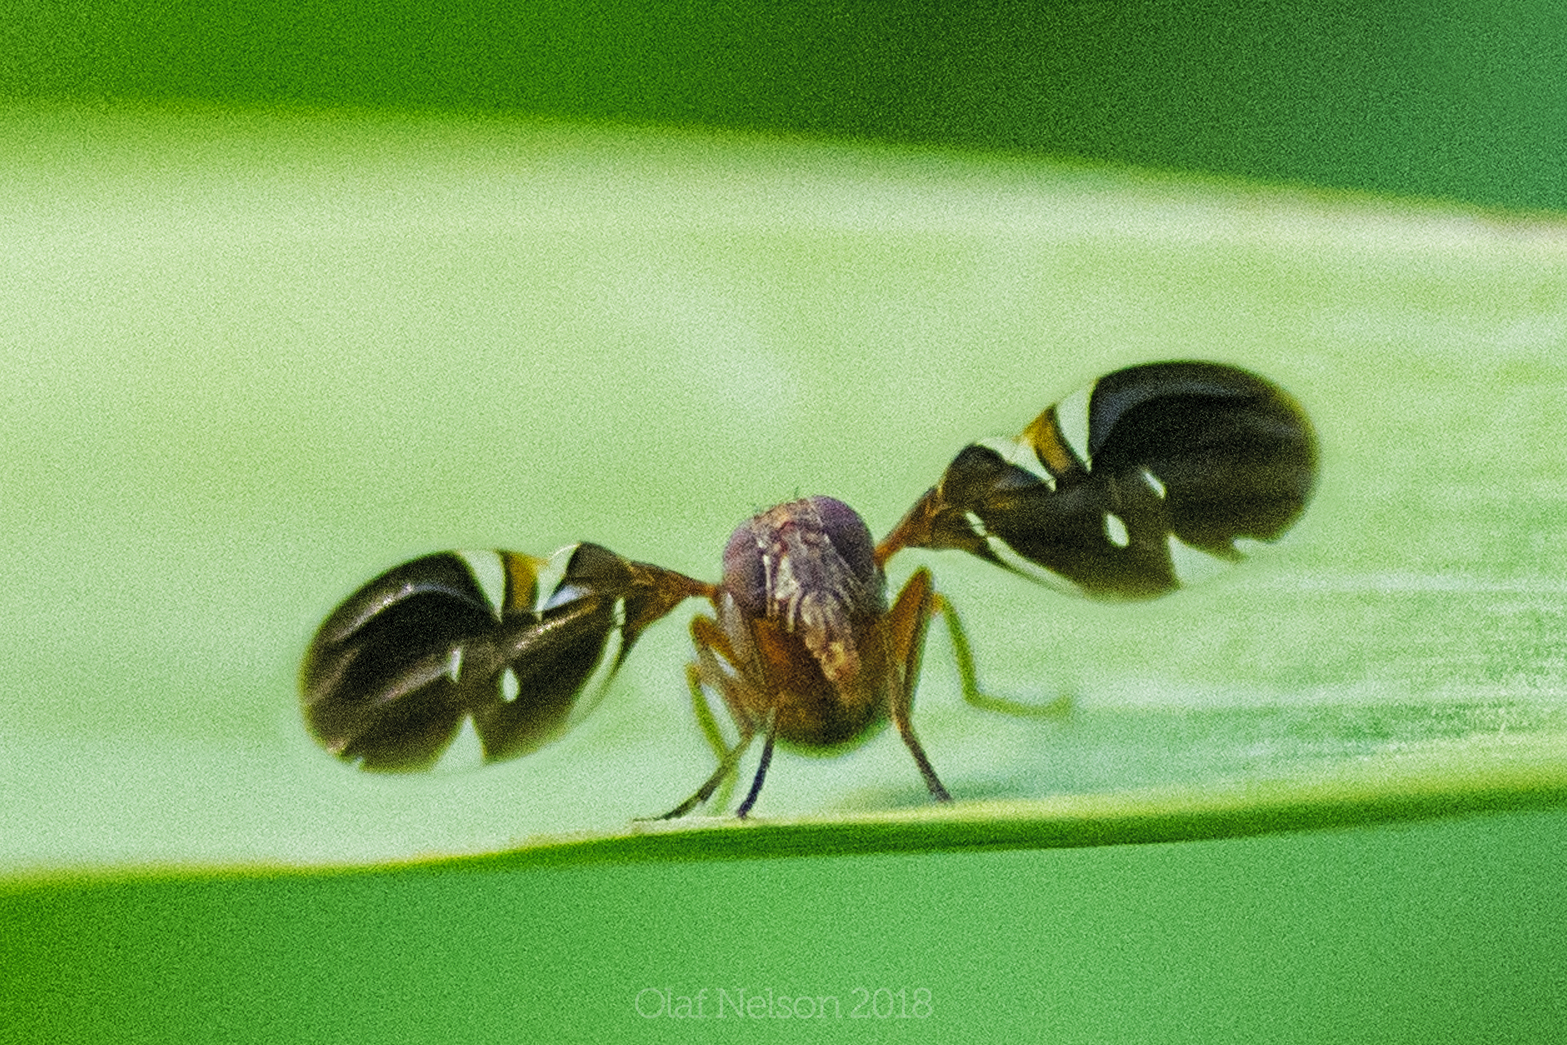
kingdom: Animalia
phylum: Arthropoda
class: Insecta
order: Diptera
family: Ulidiidae
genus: Delphinia
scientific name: Delphinia picta
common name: Common picture-winged fly
